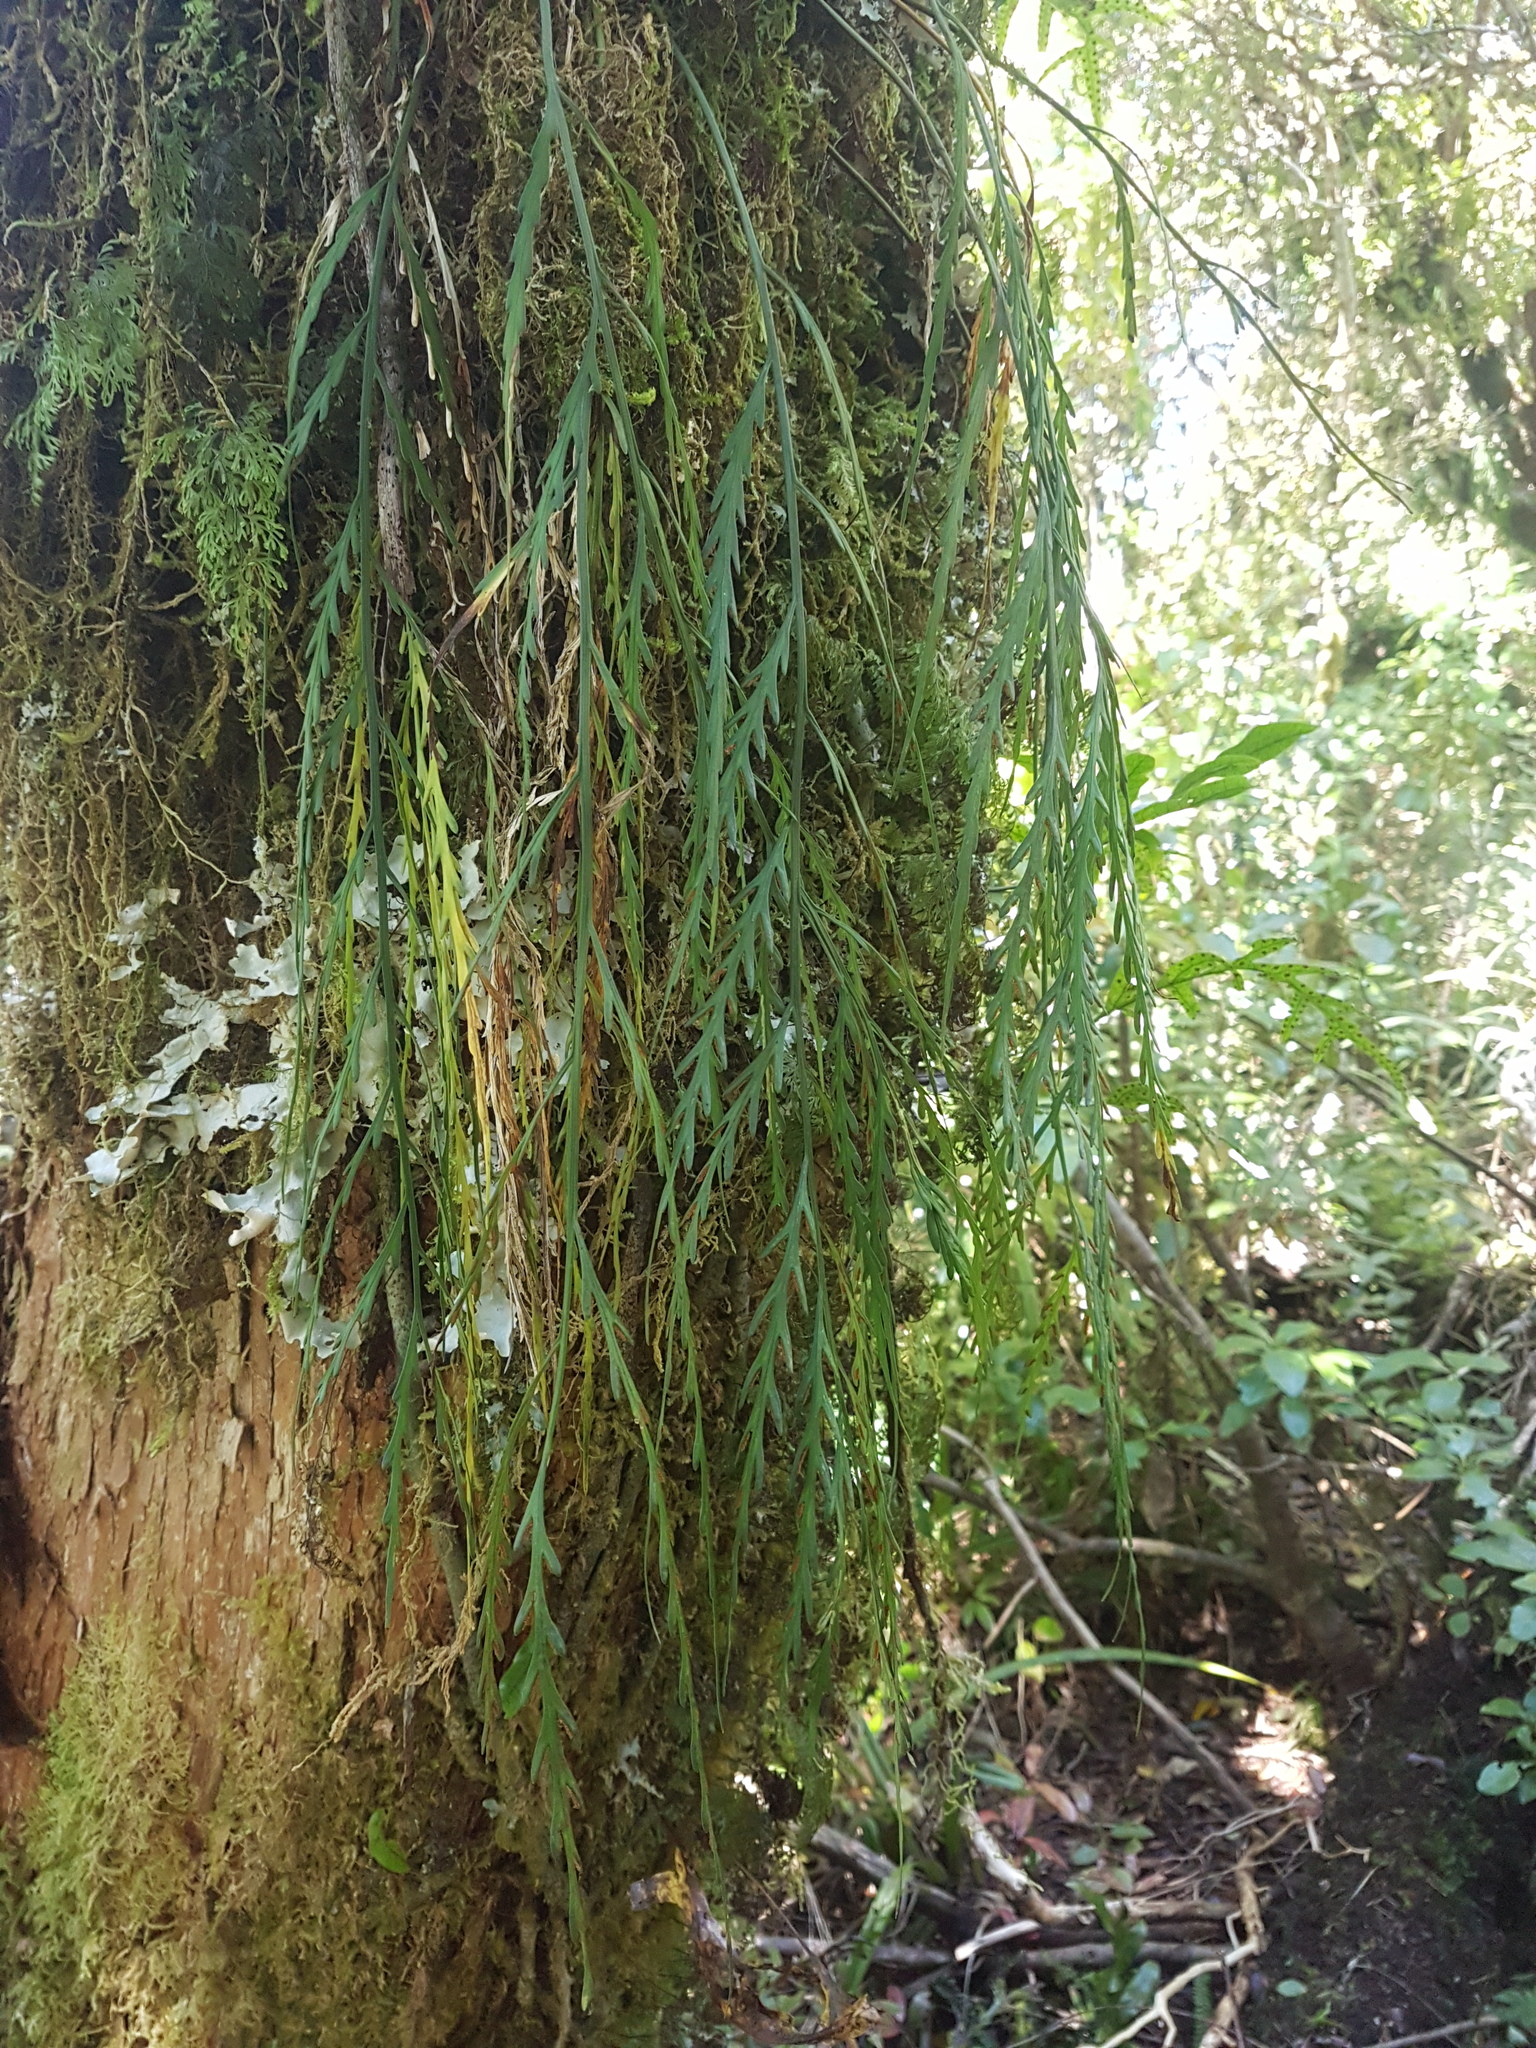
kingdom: Plantae
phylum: Tracheophyta
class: Polypodiopsida
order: Polypodiales
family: Aspleniaceae
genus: Asplenium
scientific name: Asplenium flaccidum
